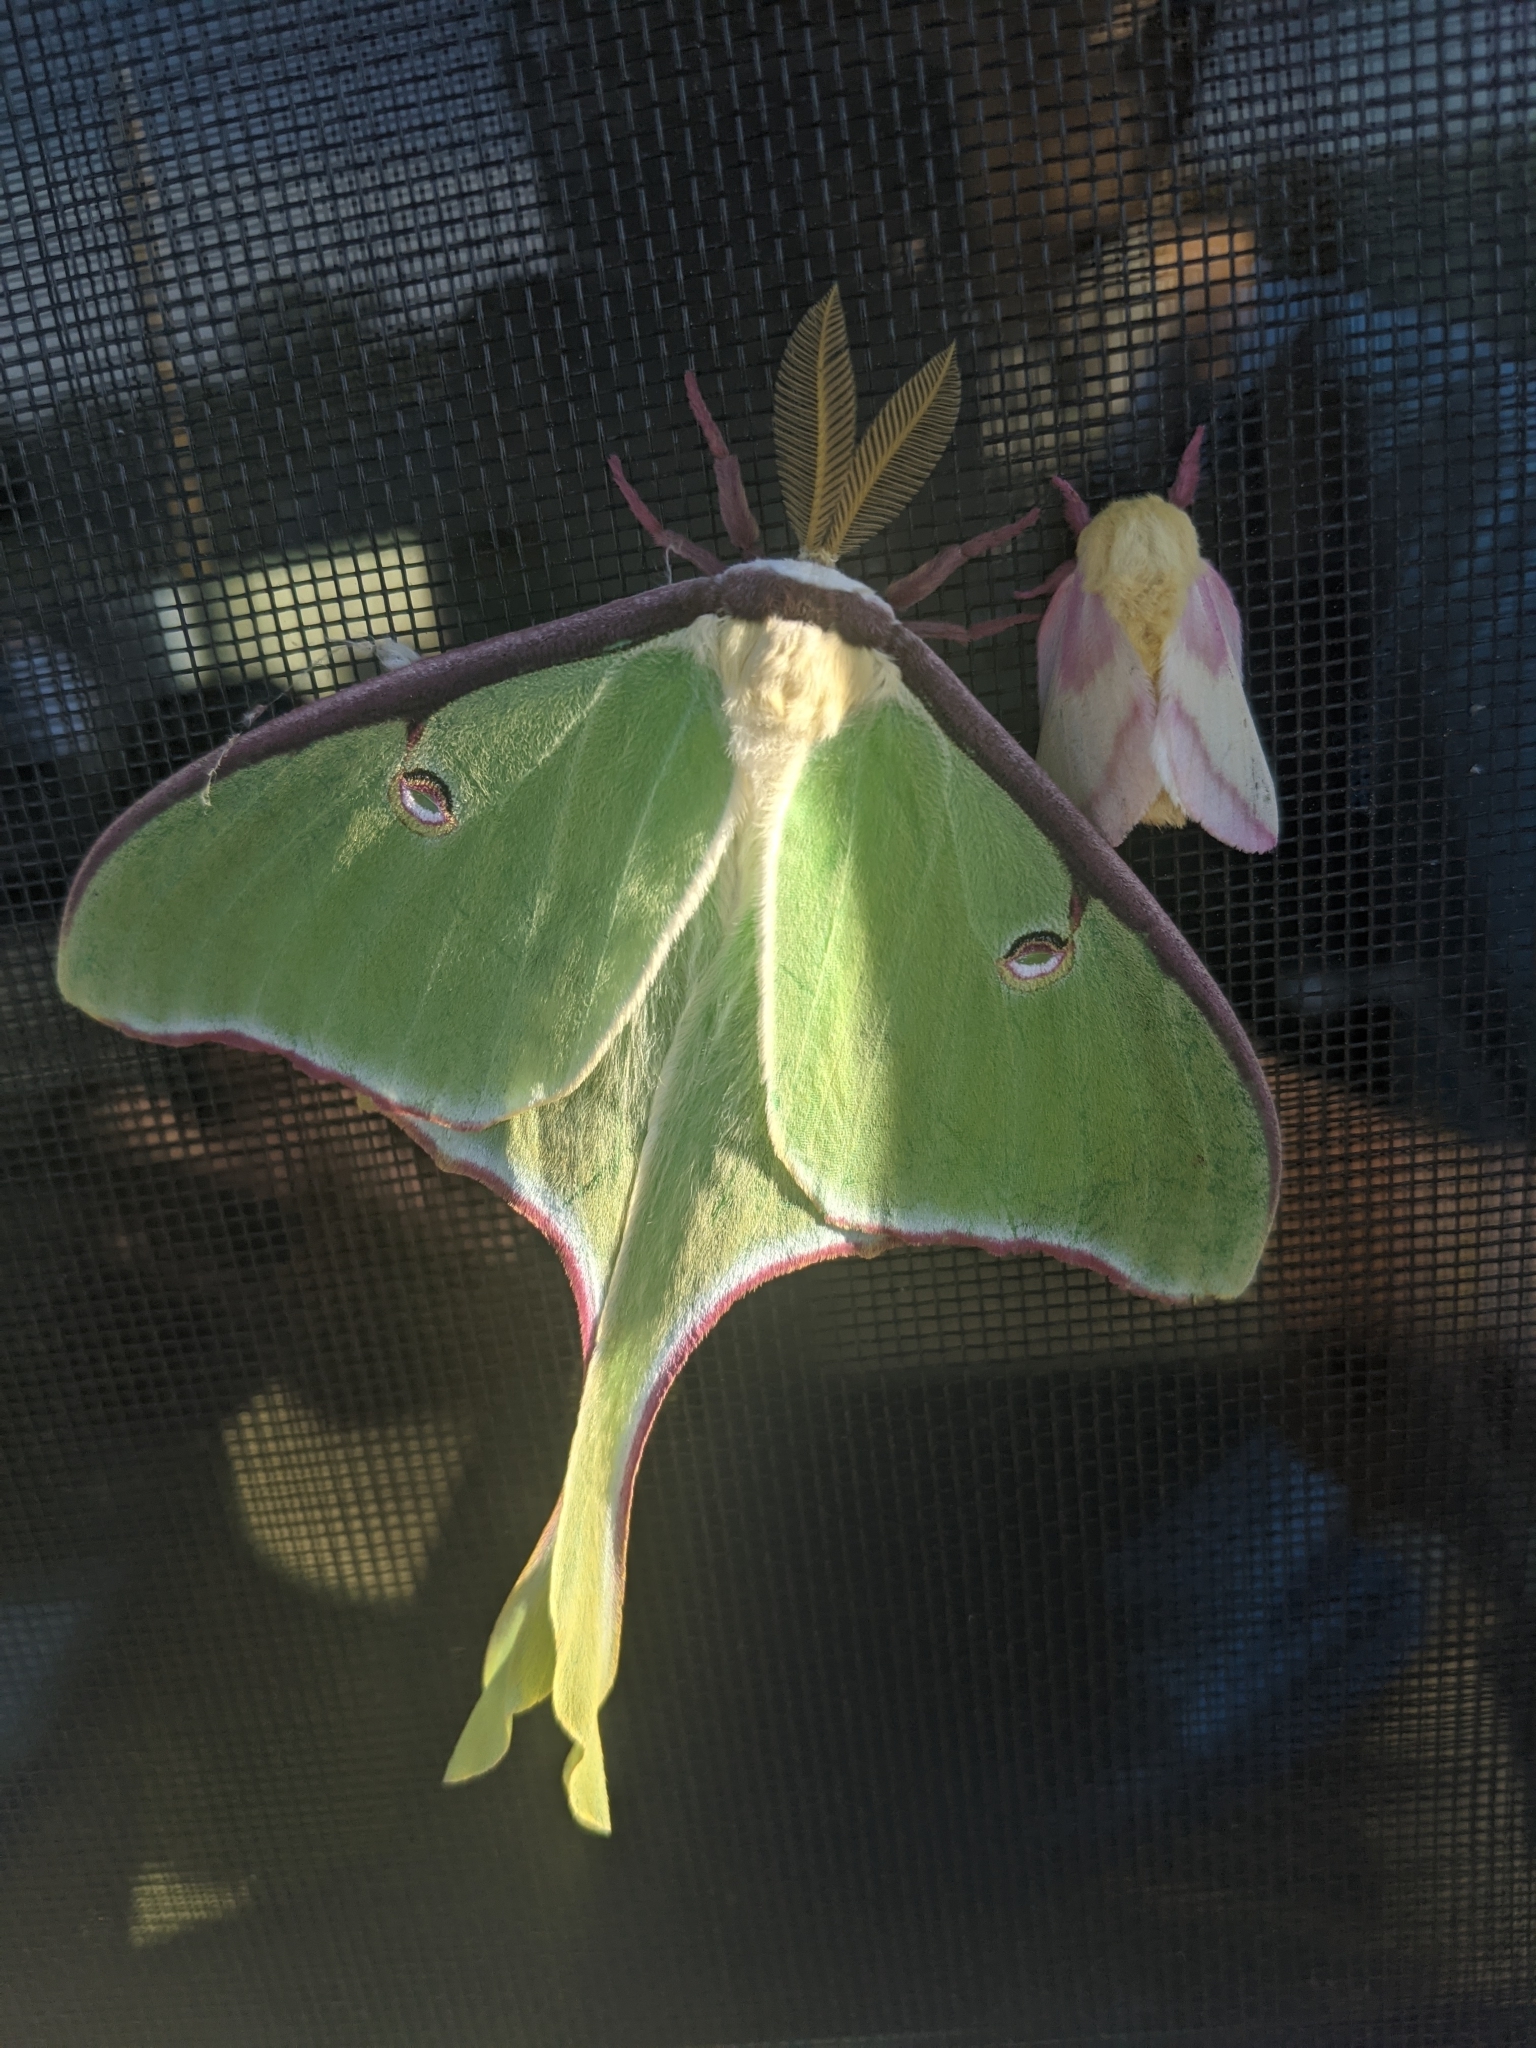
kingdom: Animalia
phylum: Arthropoda
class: Insecta
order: Lepidoptera
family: Saturniidae
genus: Actias
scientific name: Actias luna
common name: Luna moth
